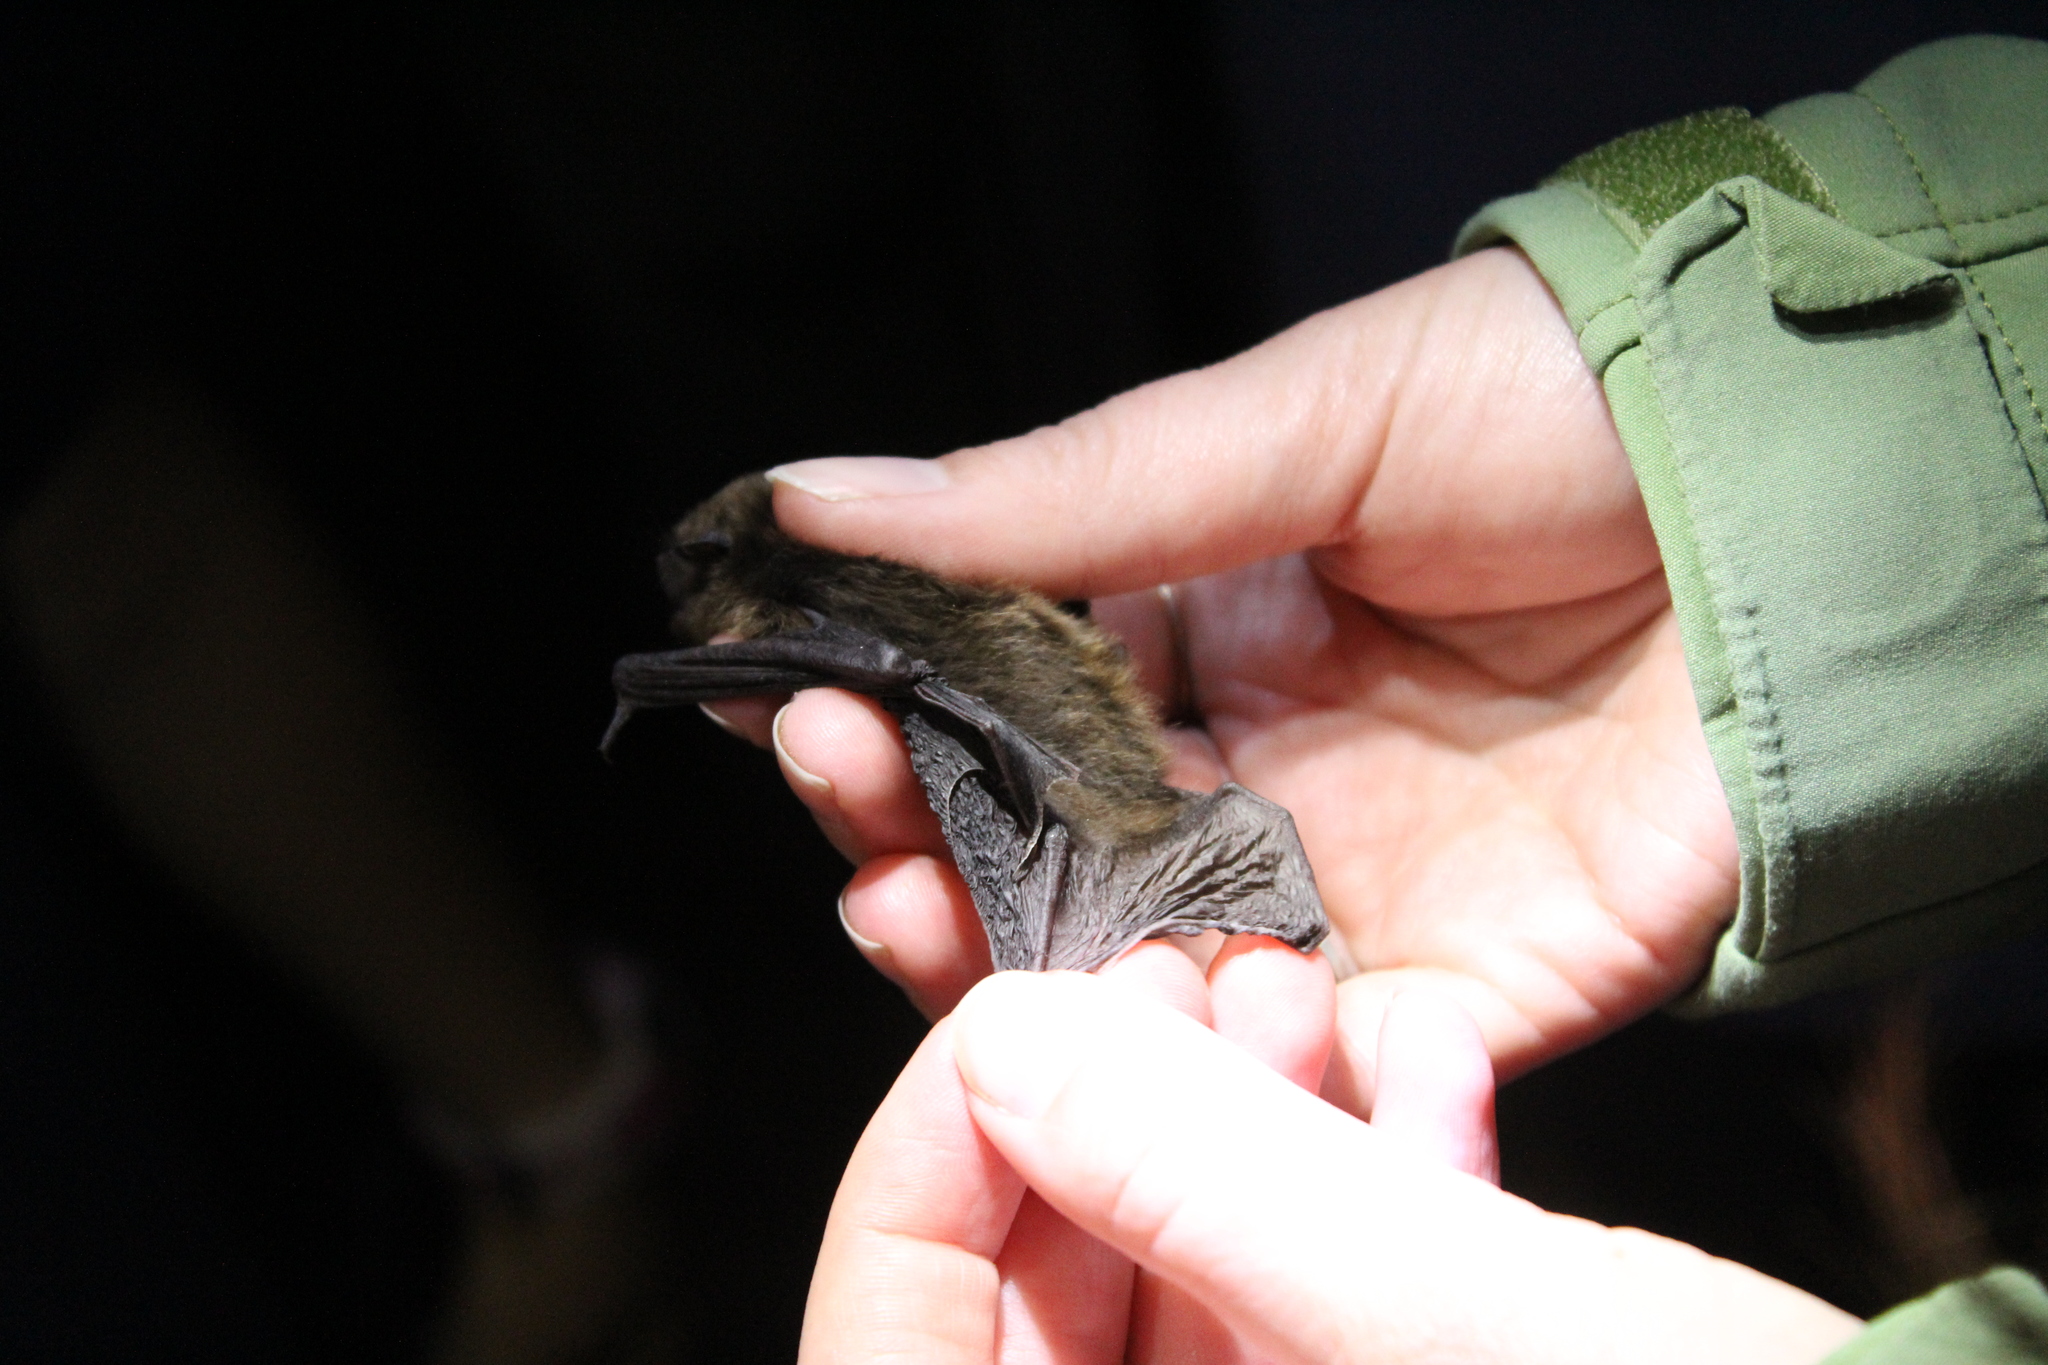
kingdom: Animalia
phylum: Chordata
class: Mammalia
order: Chiroptera
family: Vespertilionidae
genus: Myotis
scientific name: Myotis lucifugus
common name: Little brown bat
